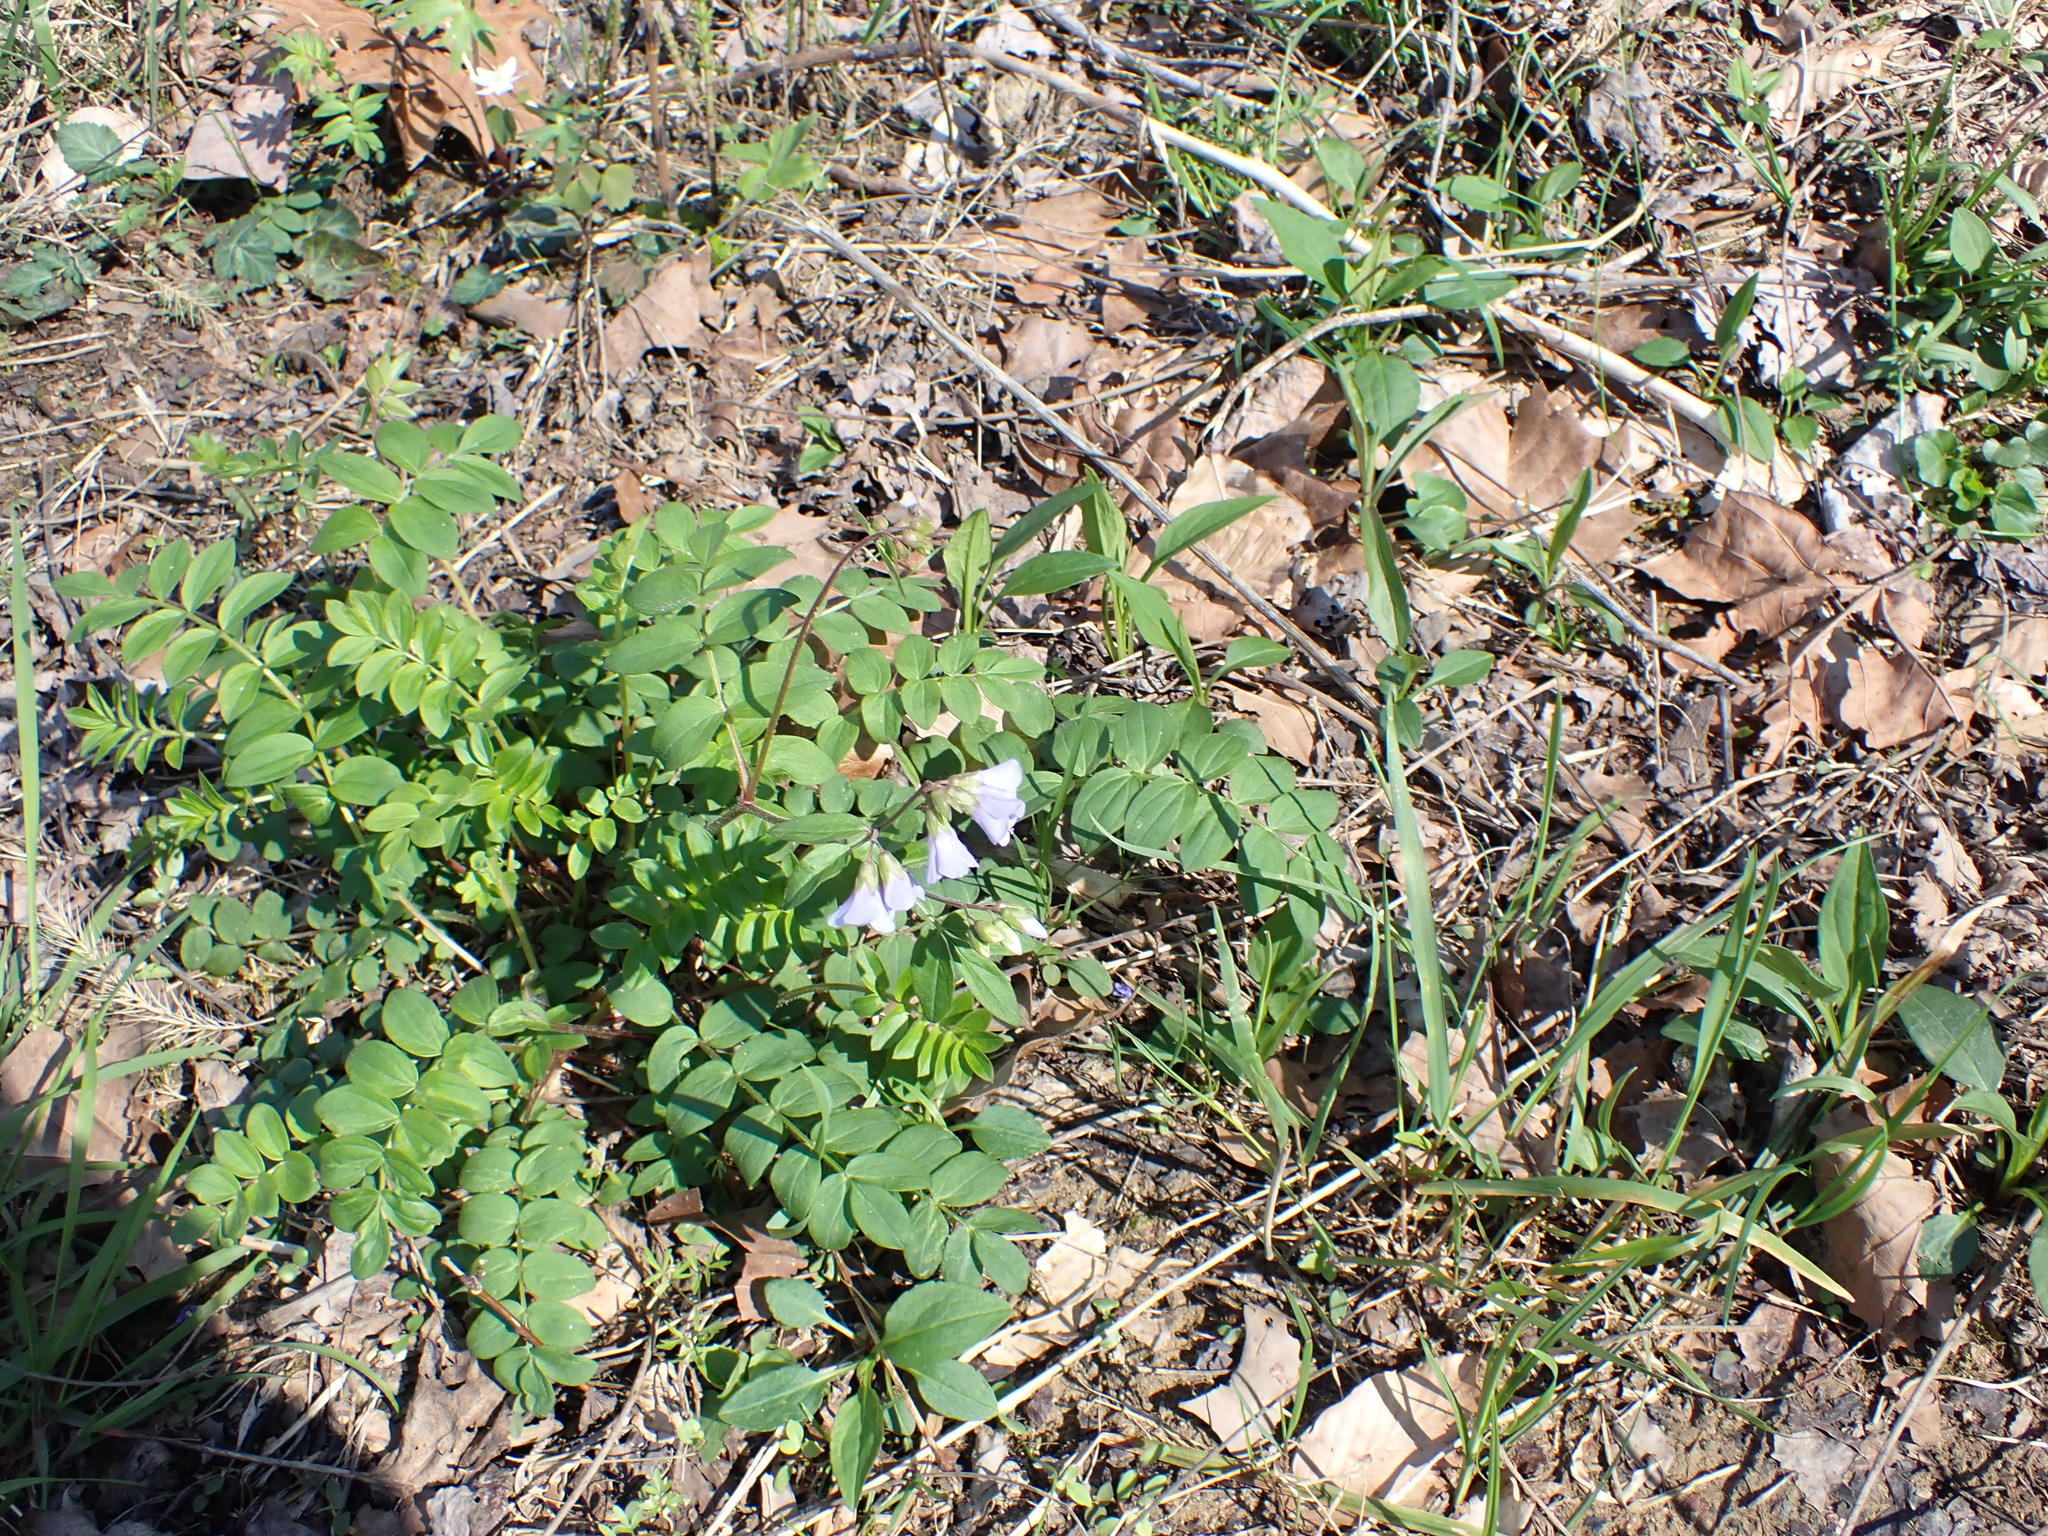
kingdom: Plantae
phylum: Tracheophyta
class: Magnoliopsida
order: Ericales
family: Polemoniaceae
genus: Polemonium
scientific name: Polemonium reptans
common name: Creeping jacob's-ladder
